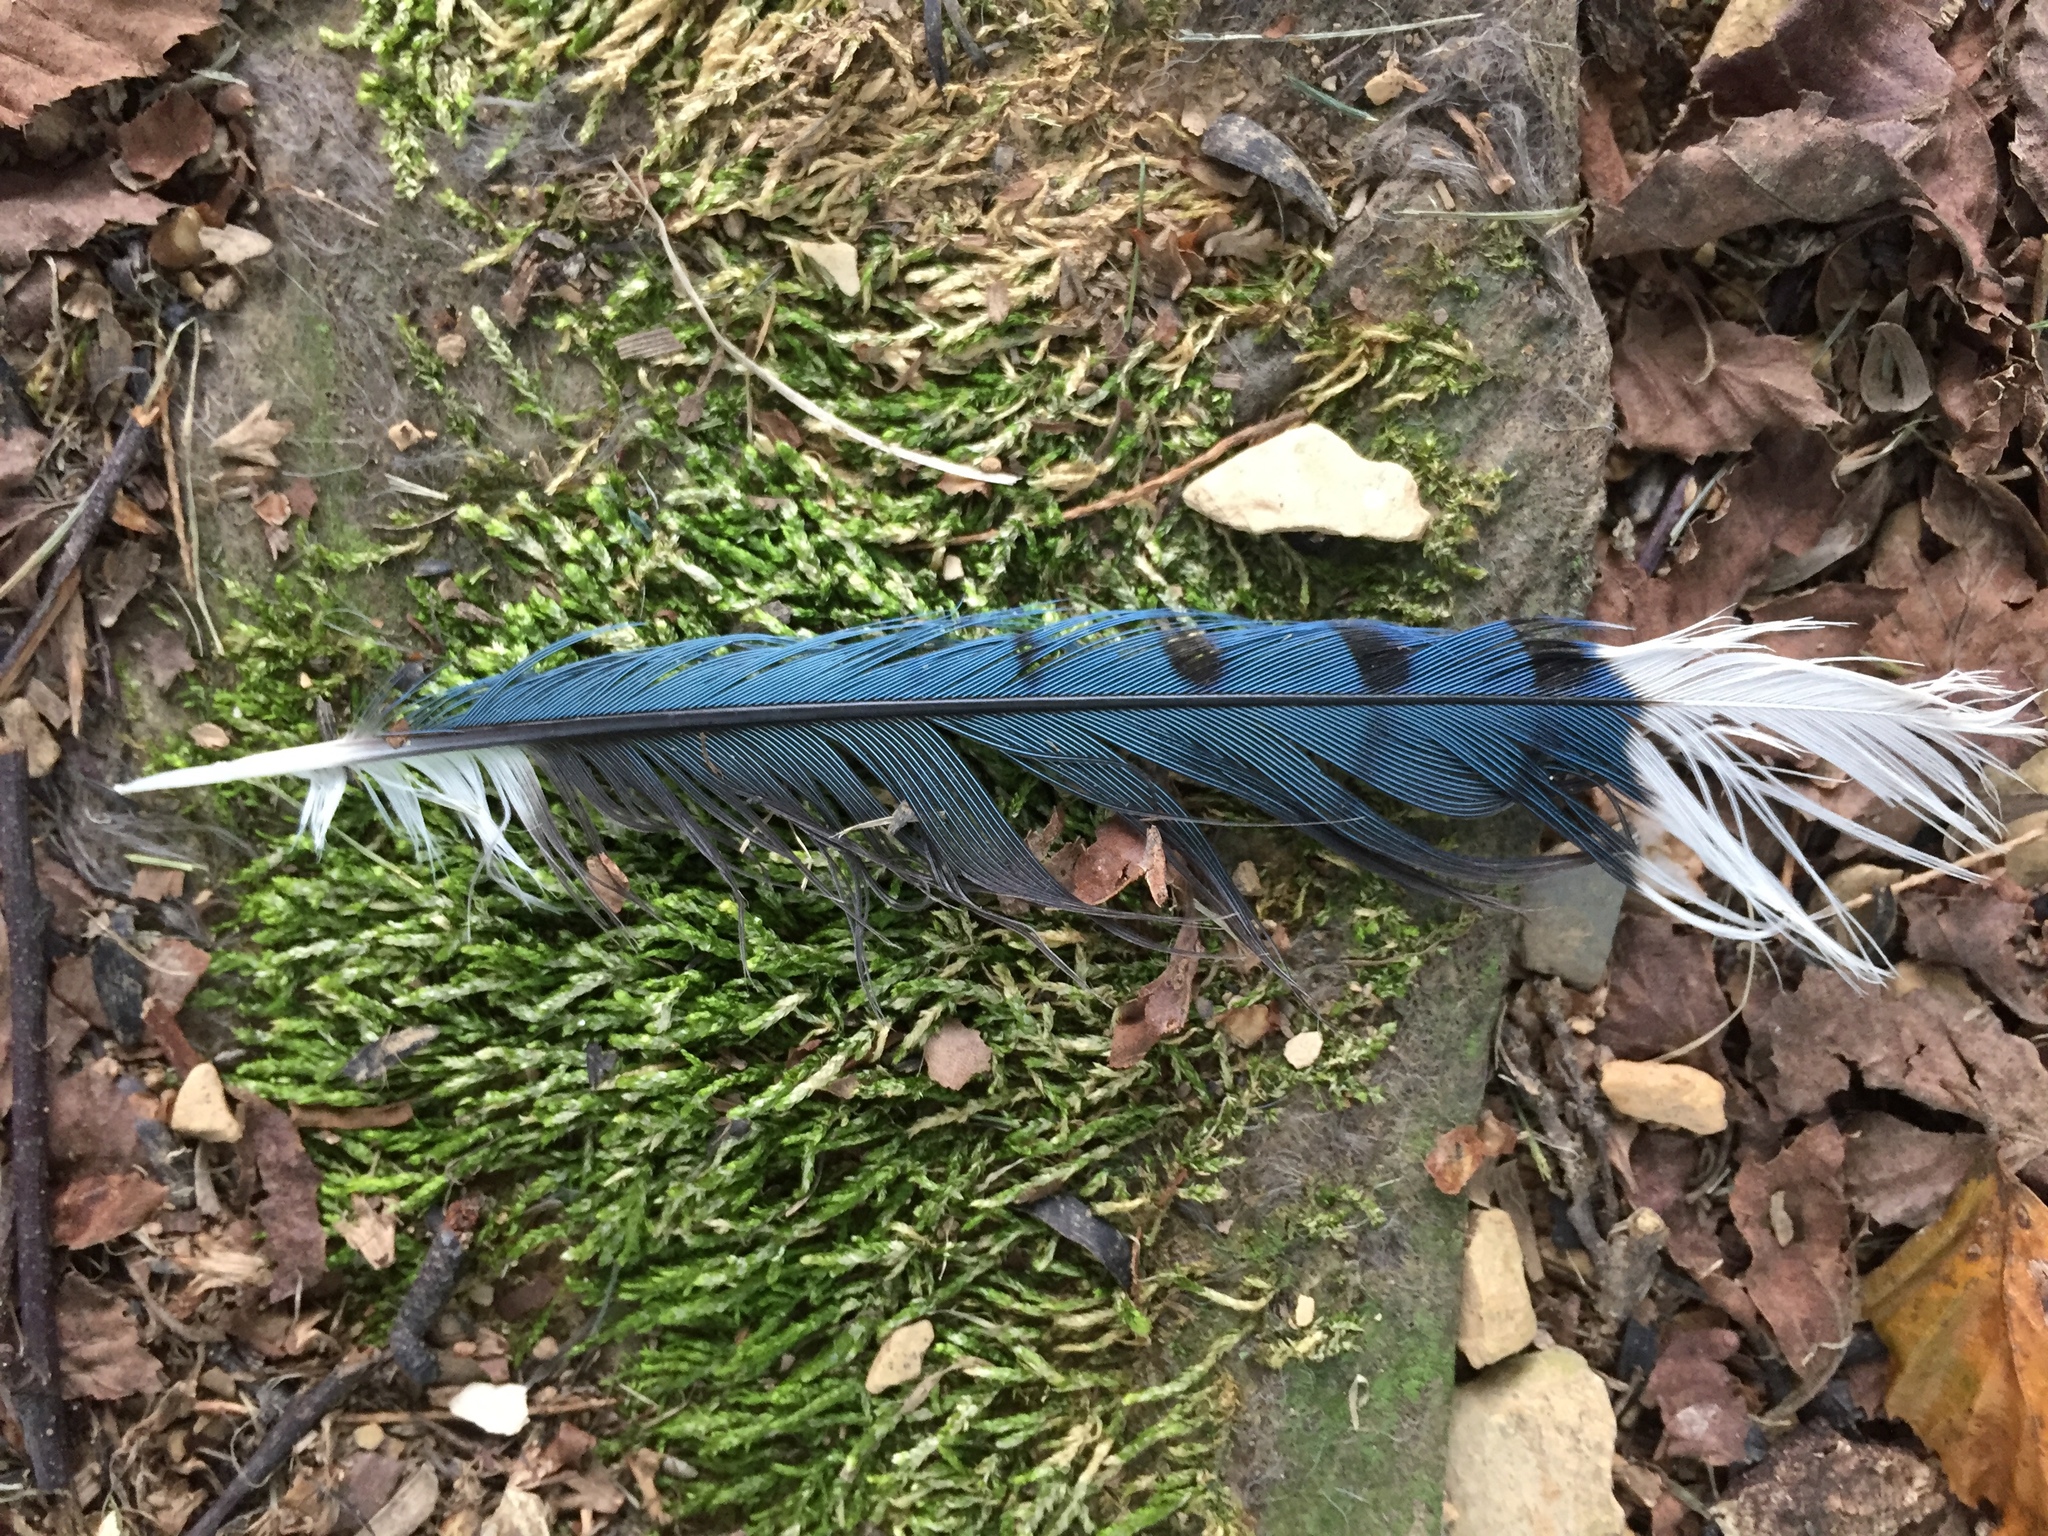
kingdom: Animalia
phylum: Chordata
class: Aves
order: Passeriformes
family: Corvidae
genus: Cyanocitta
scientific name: Cyanocitta cristata
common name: Blue jay
